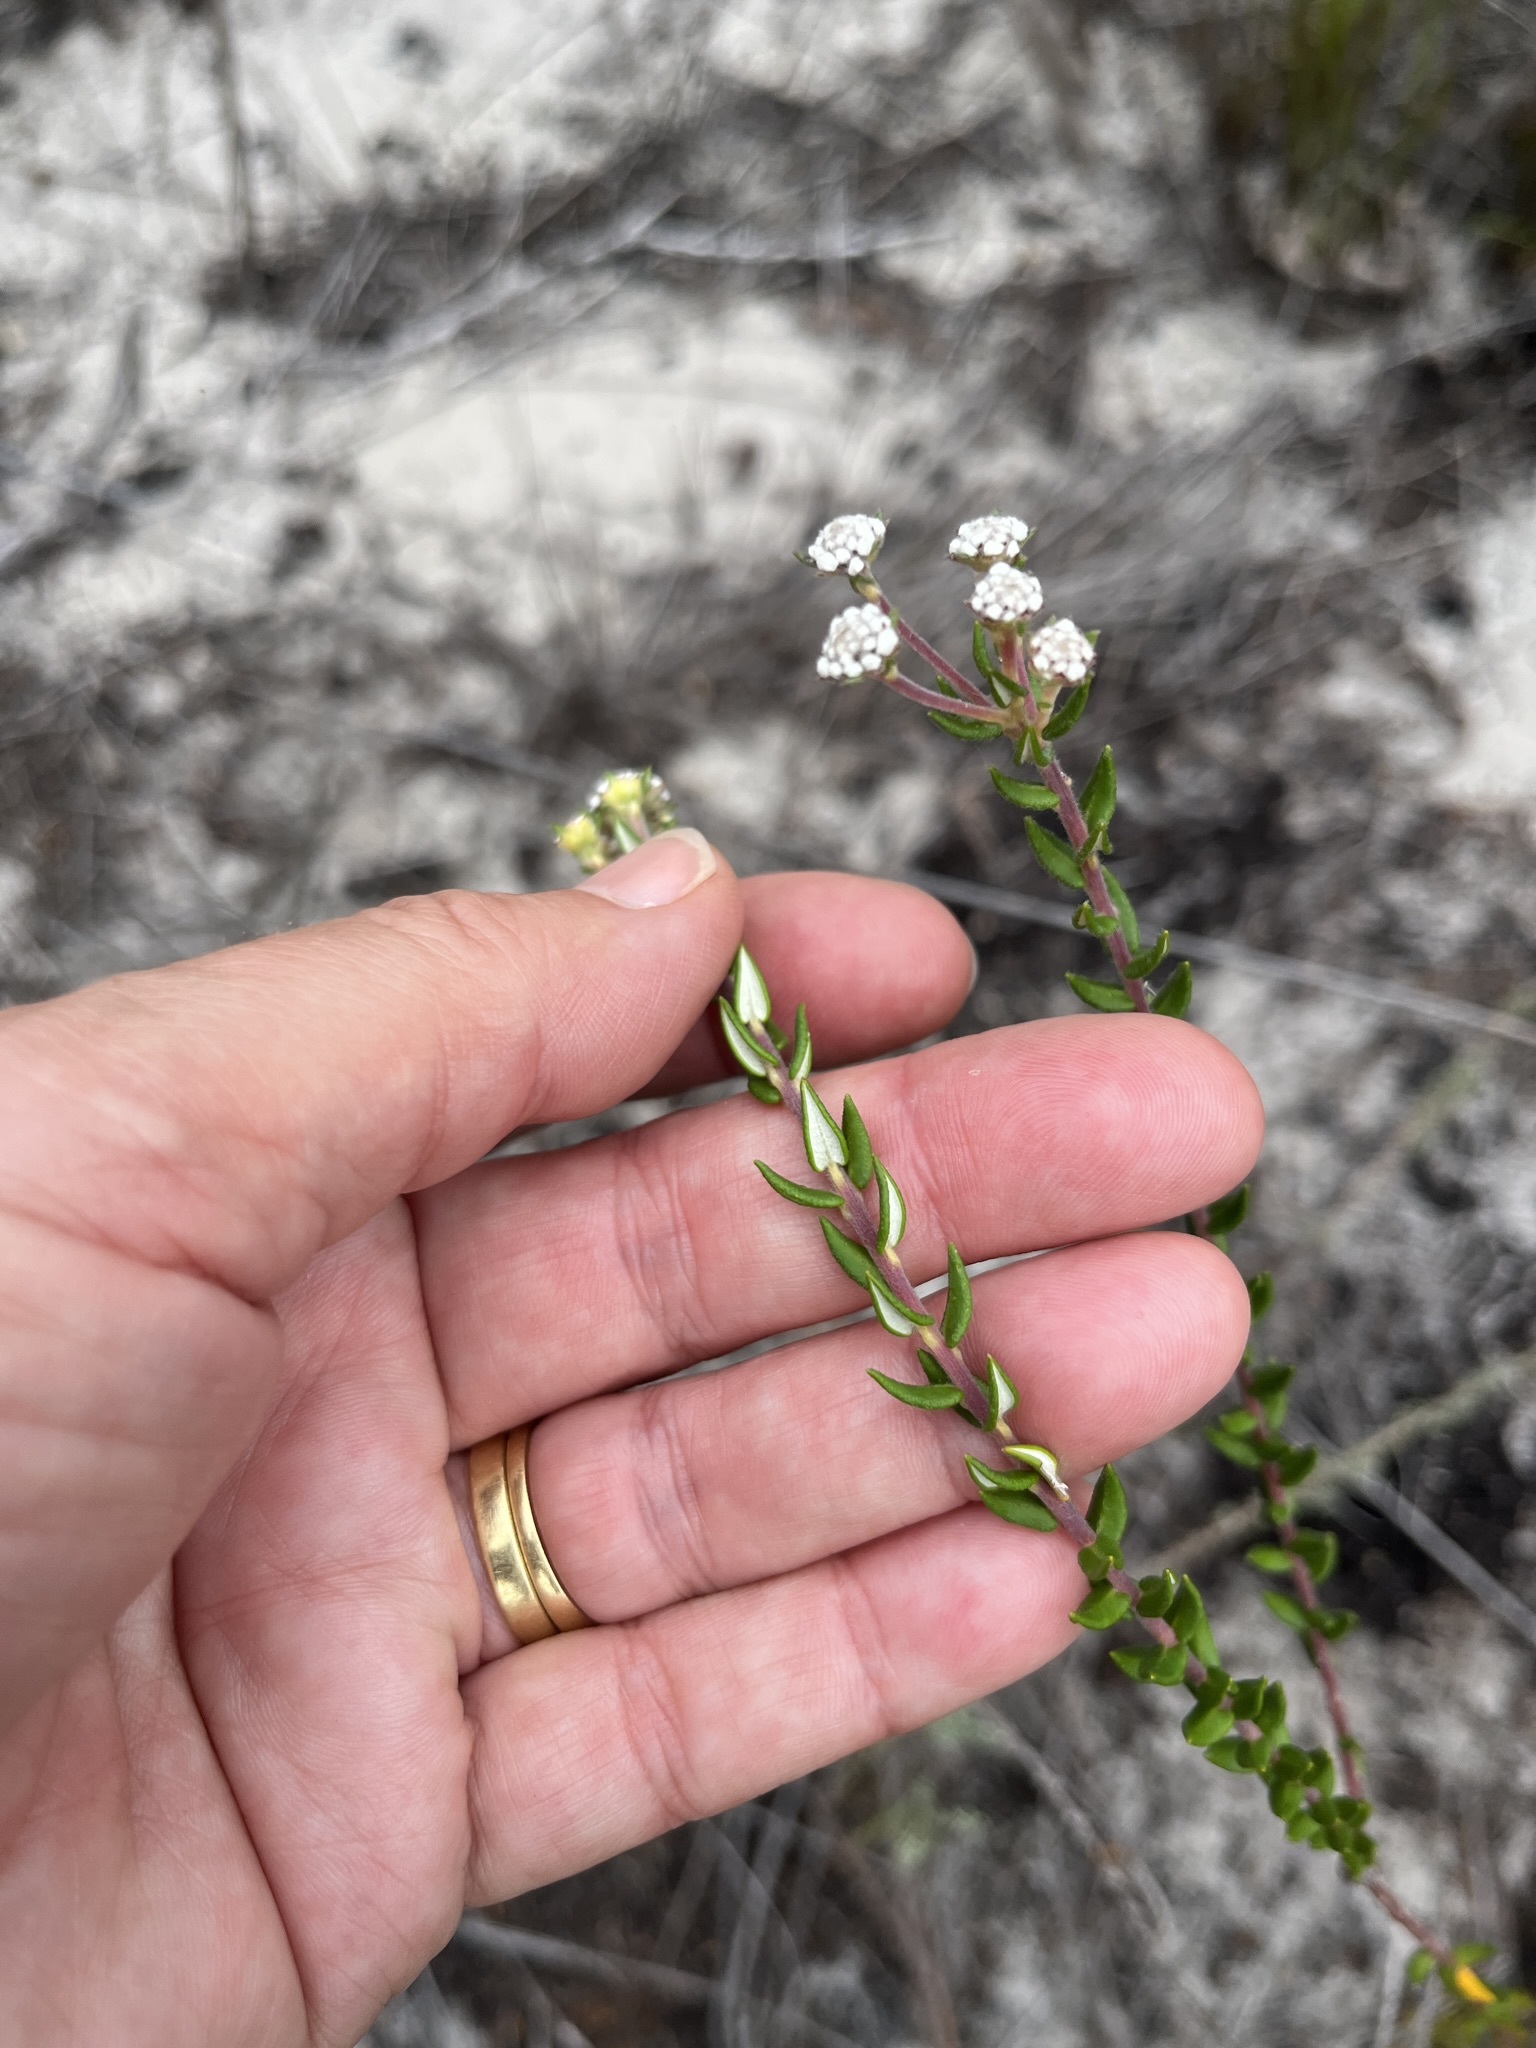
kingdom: Plantae
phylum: Tracheophyta
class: Magnoliopsida
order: Rosales
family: Rhamnaceae
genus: Phylica
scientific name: Phylica selaginoides
